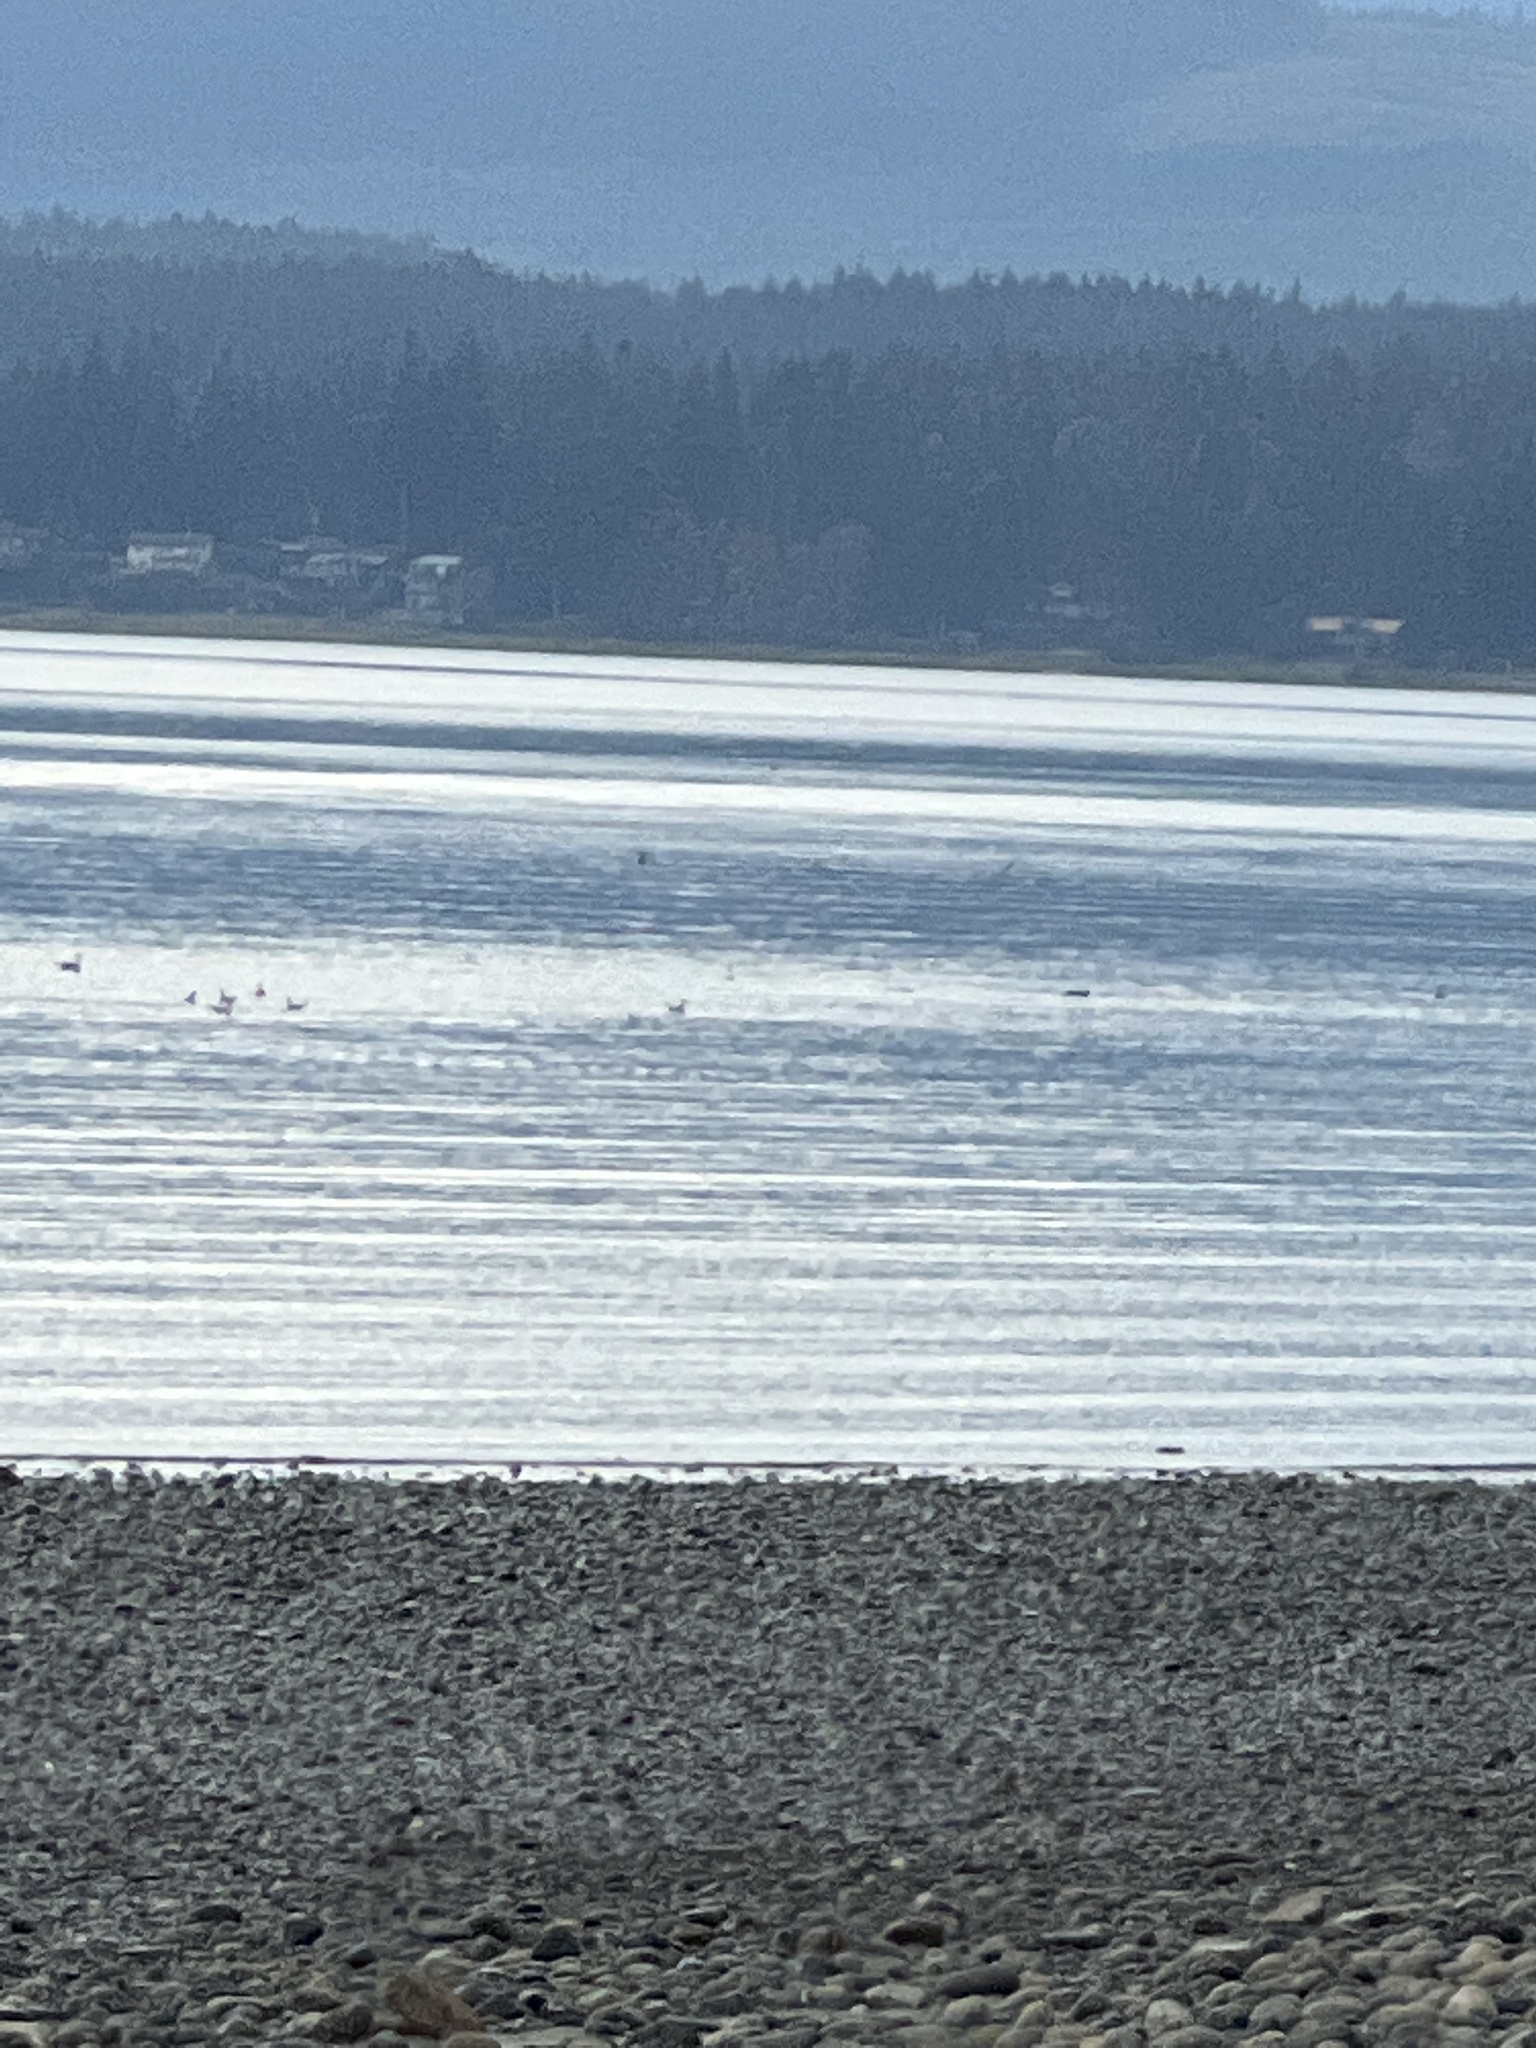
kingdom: Animalia
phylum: Chordata
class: Aves
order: Charadriiformes
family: Laridae
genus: Chroicocephalus
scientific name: Chroicocephalus philadelphia
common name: Bonaparte's gull
